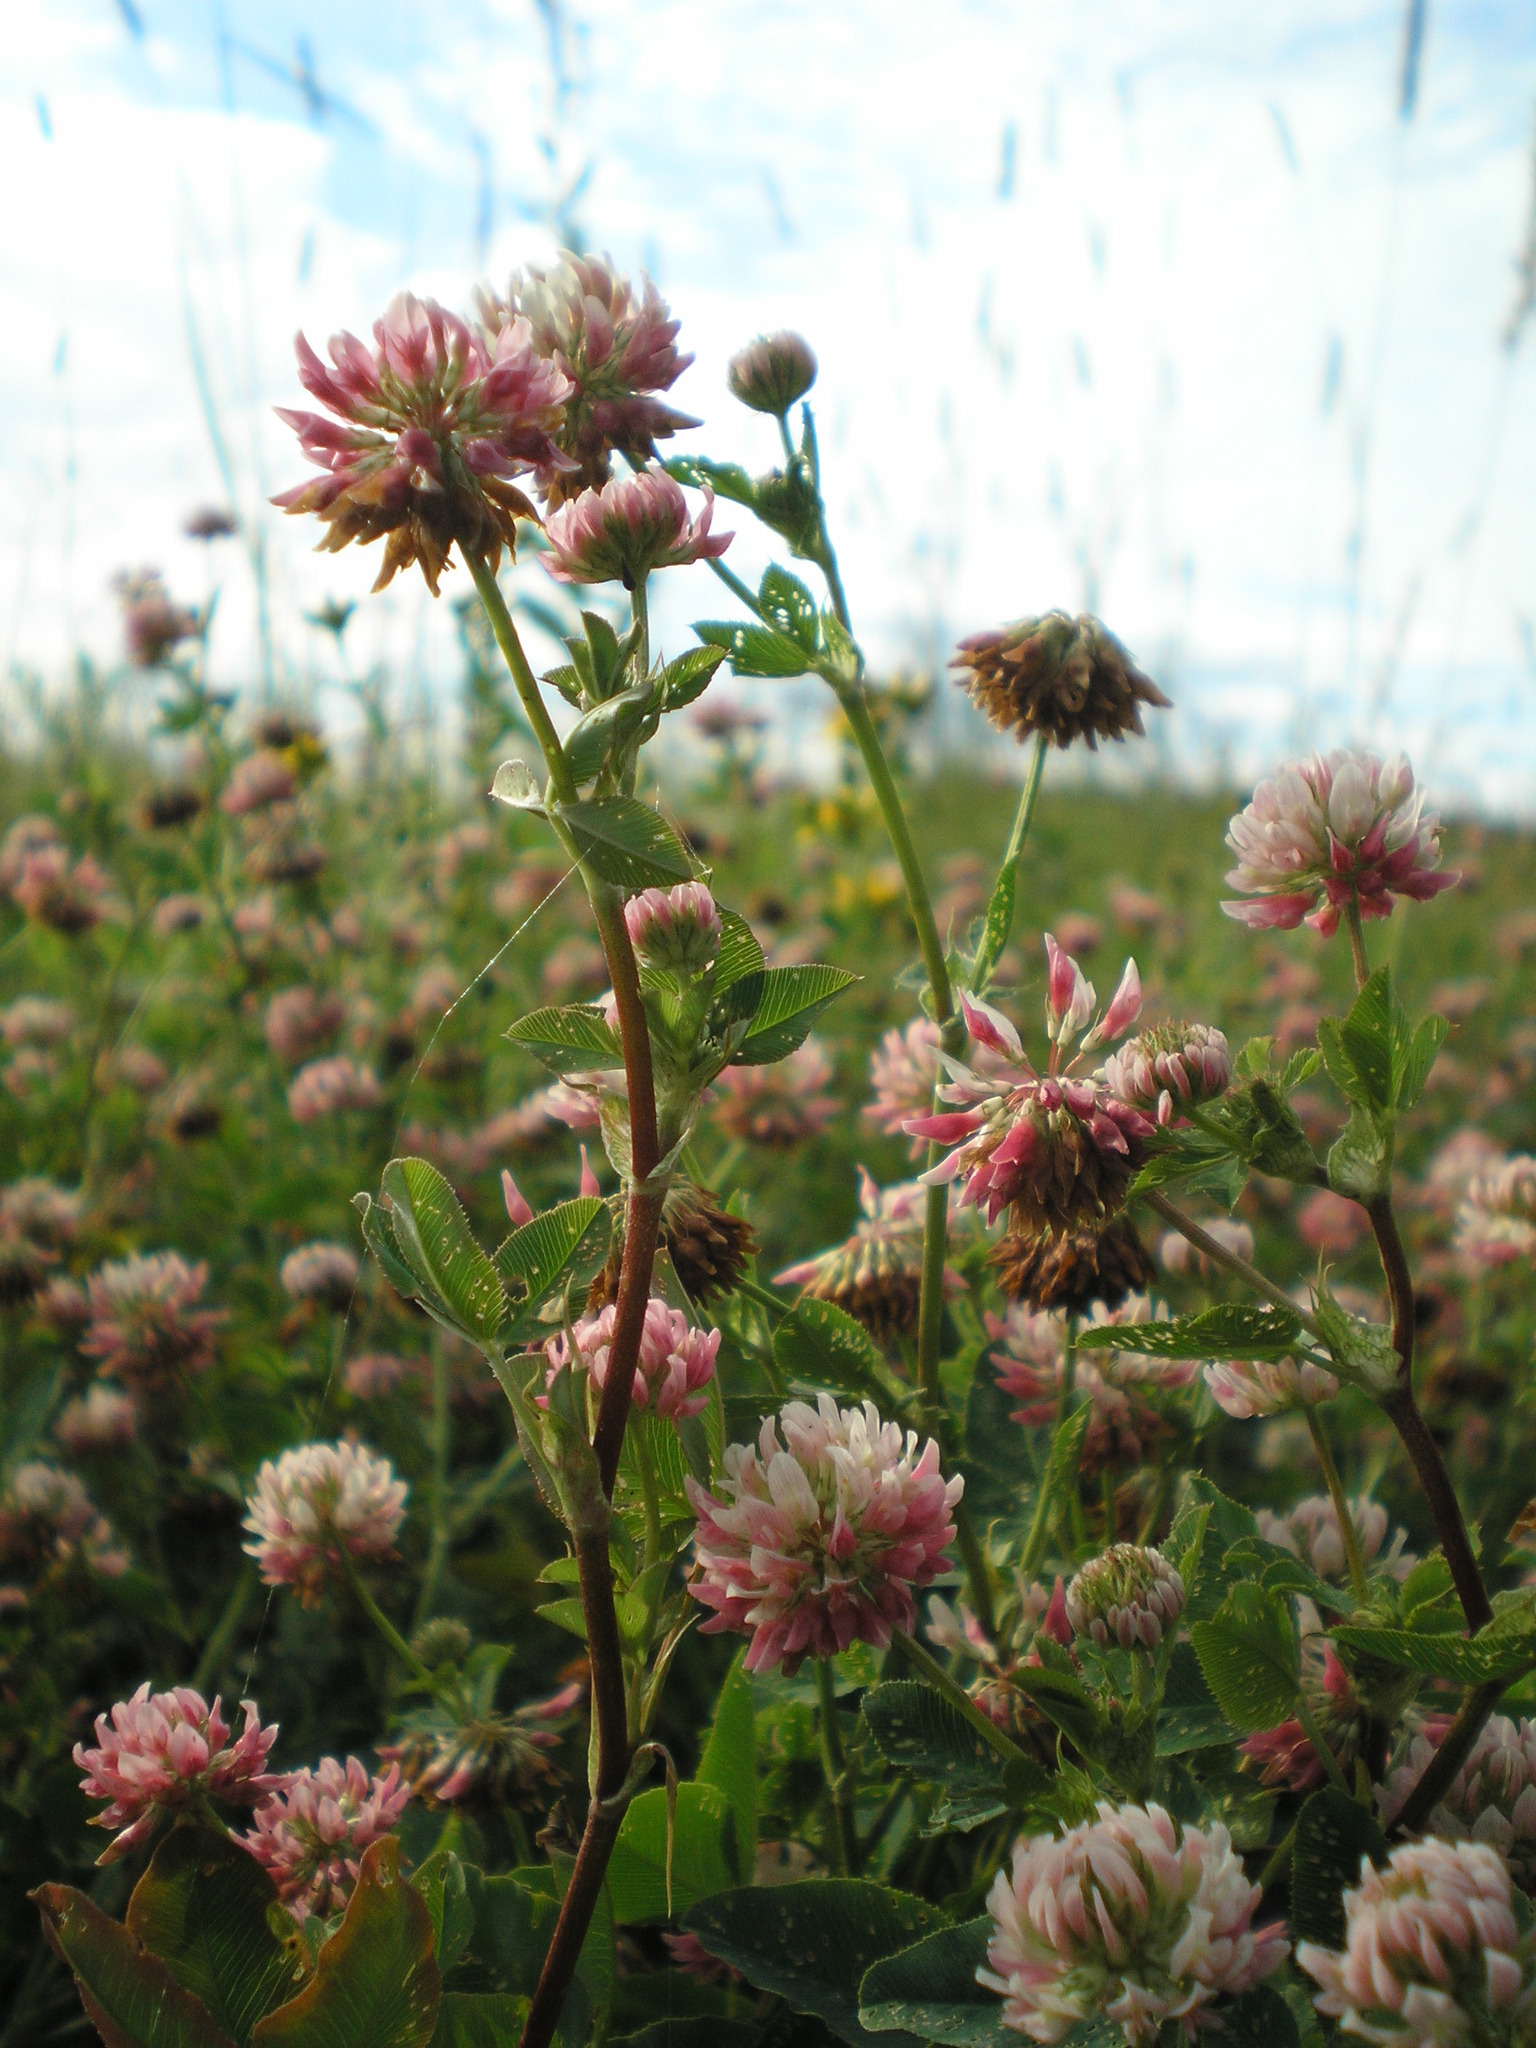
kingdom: Plantae
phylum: Tracheophyta
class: Magnoliopsida
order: Fabales
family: Fabaceae
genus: Trifolium
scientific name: Trifolium hybridum
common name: Alsike clover
